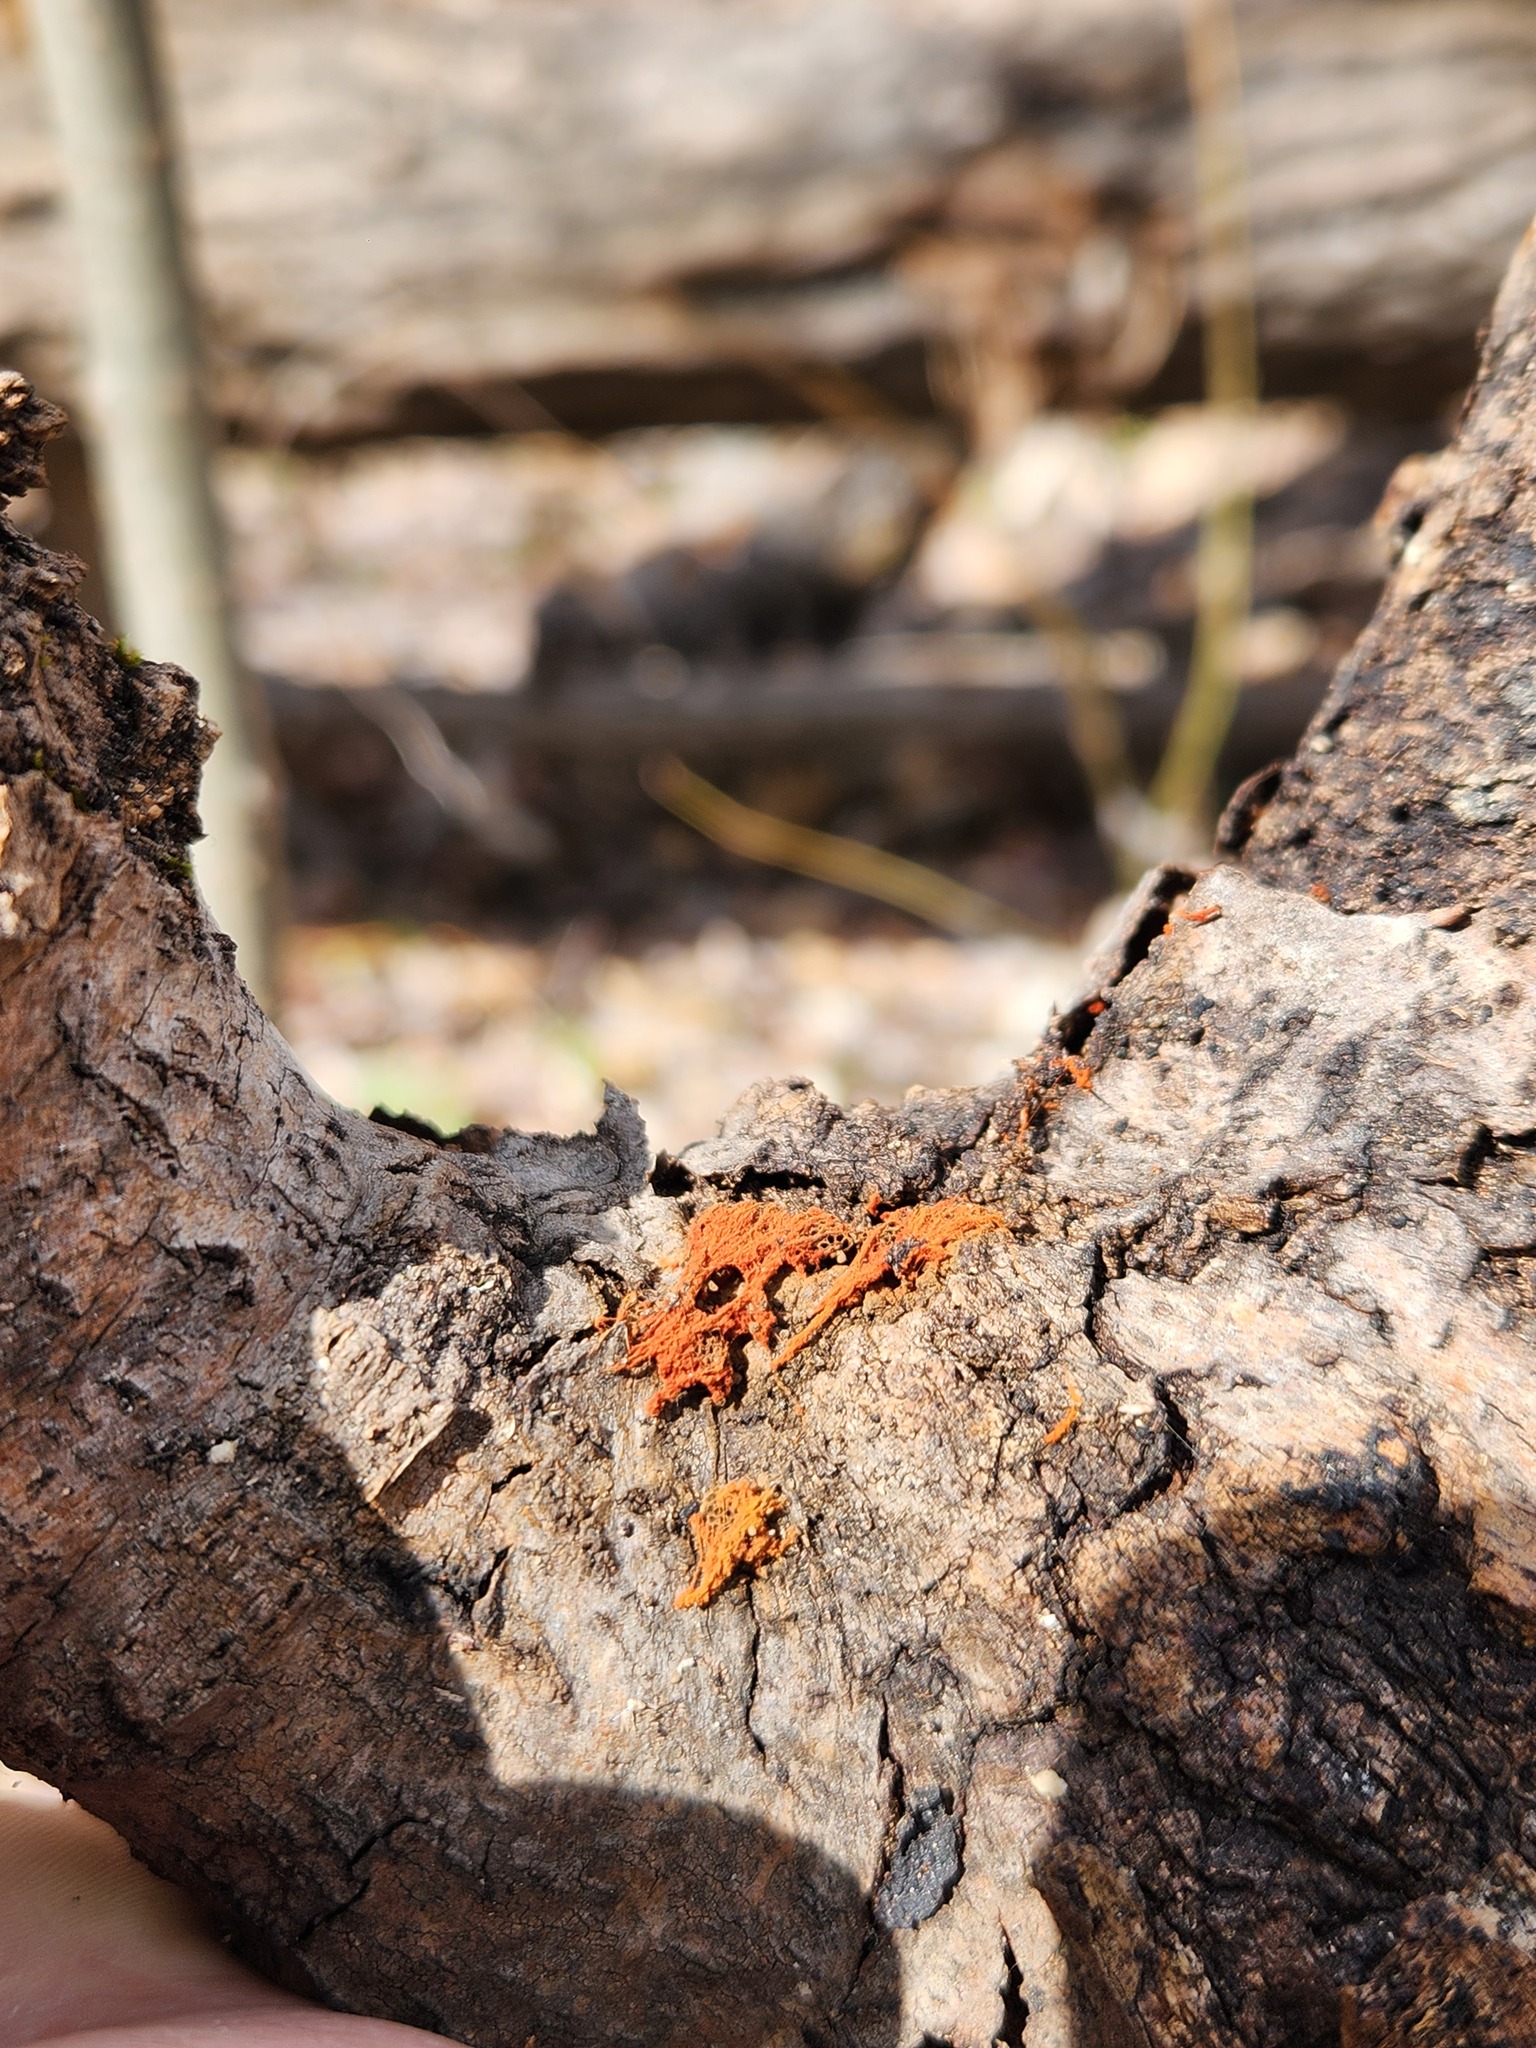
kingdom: Protozoa
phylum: Mycetozoa
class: Myxomycetes
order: Trichiales
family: Trichiaceae
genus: Metatrichia
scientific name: Metatrichia vesparia
